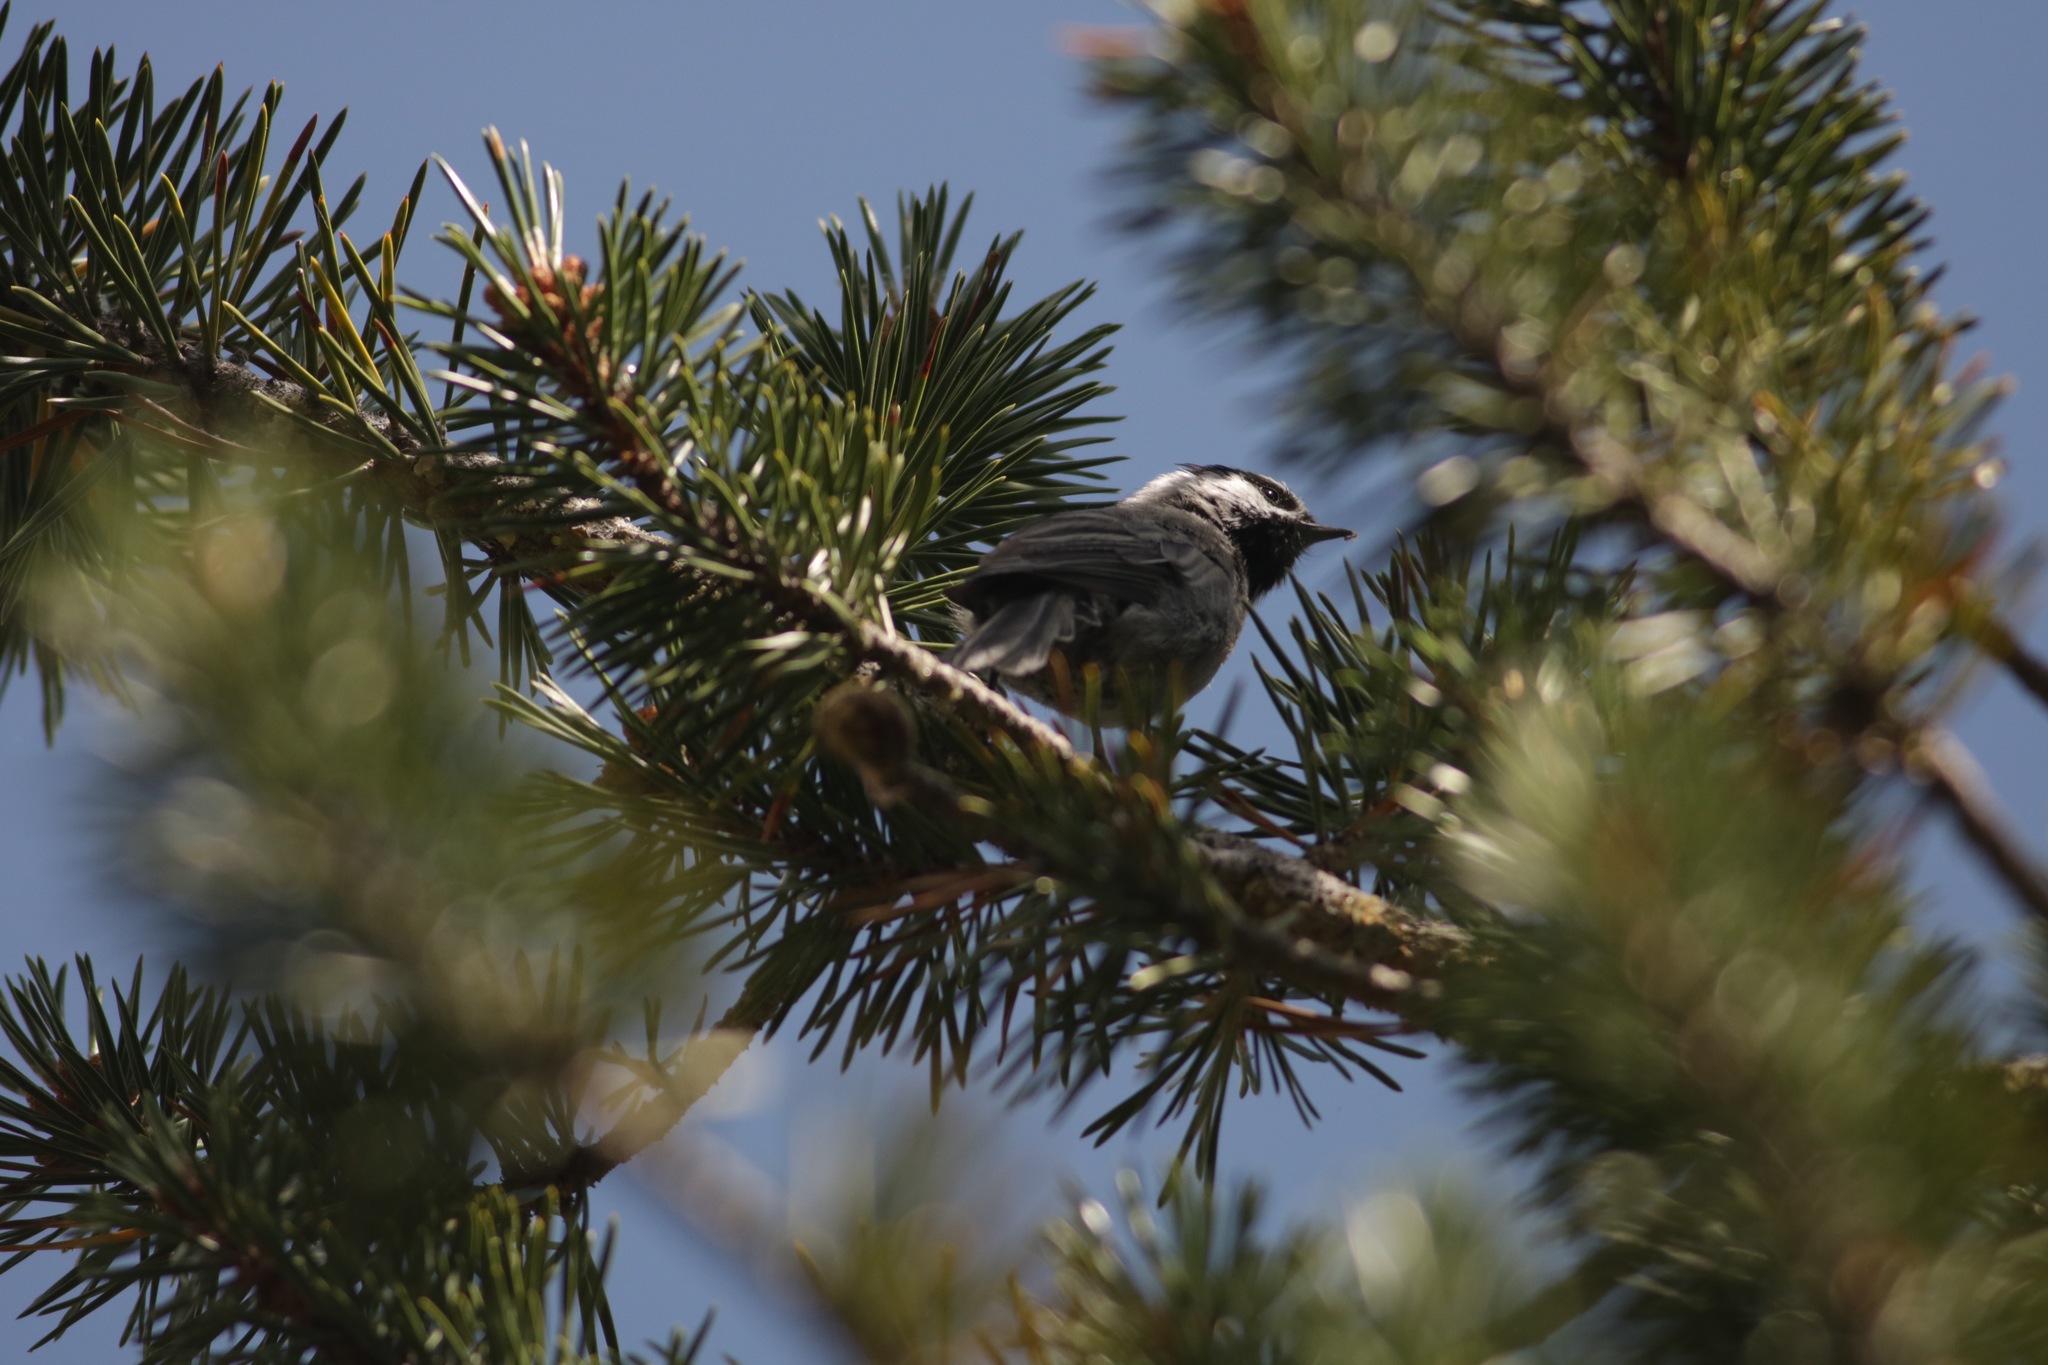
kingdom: Animalia
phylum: Chordata
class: Aves
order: Passeriformes
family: Paridae
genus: Poecile
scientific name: Poecile gambeli
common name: Mountain chickadee
